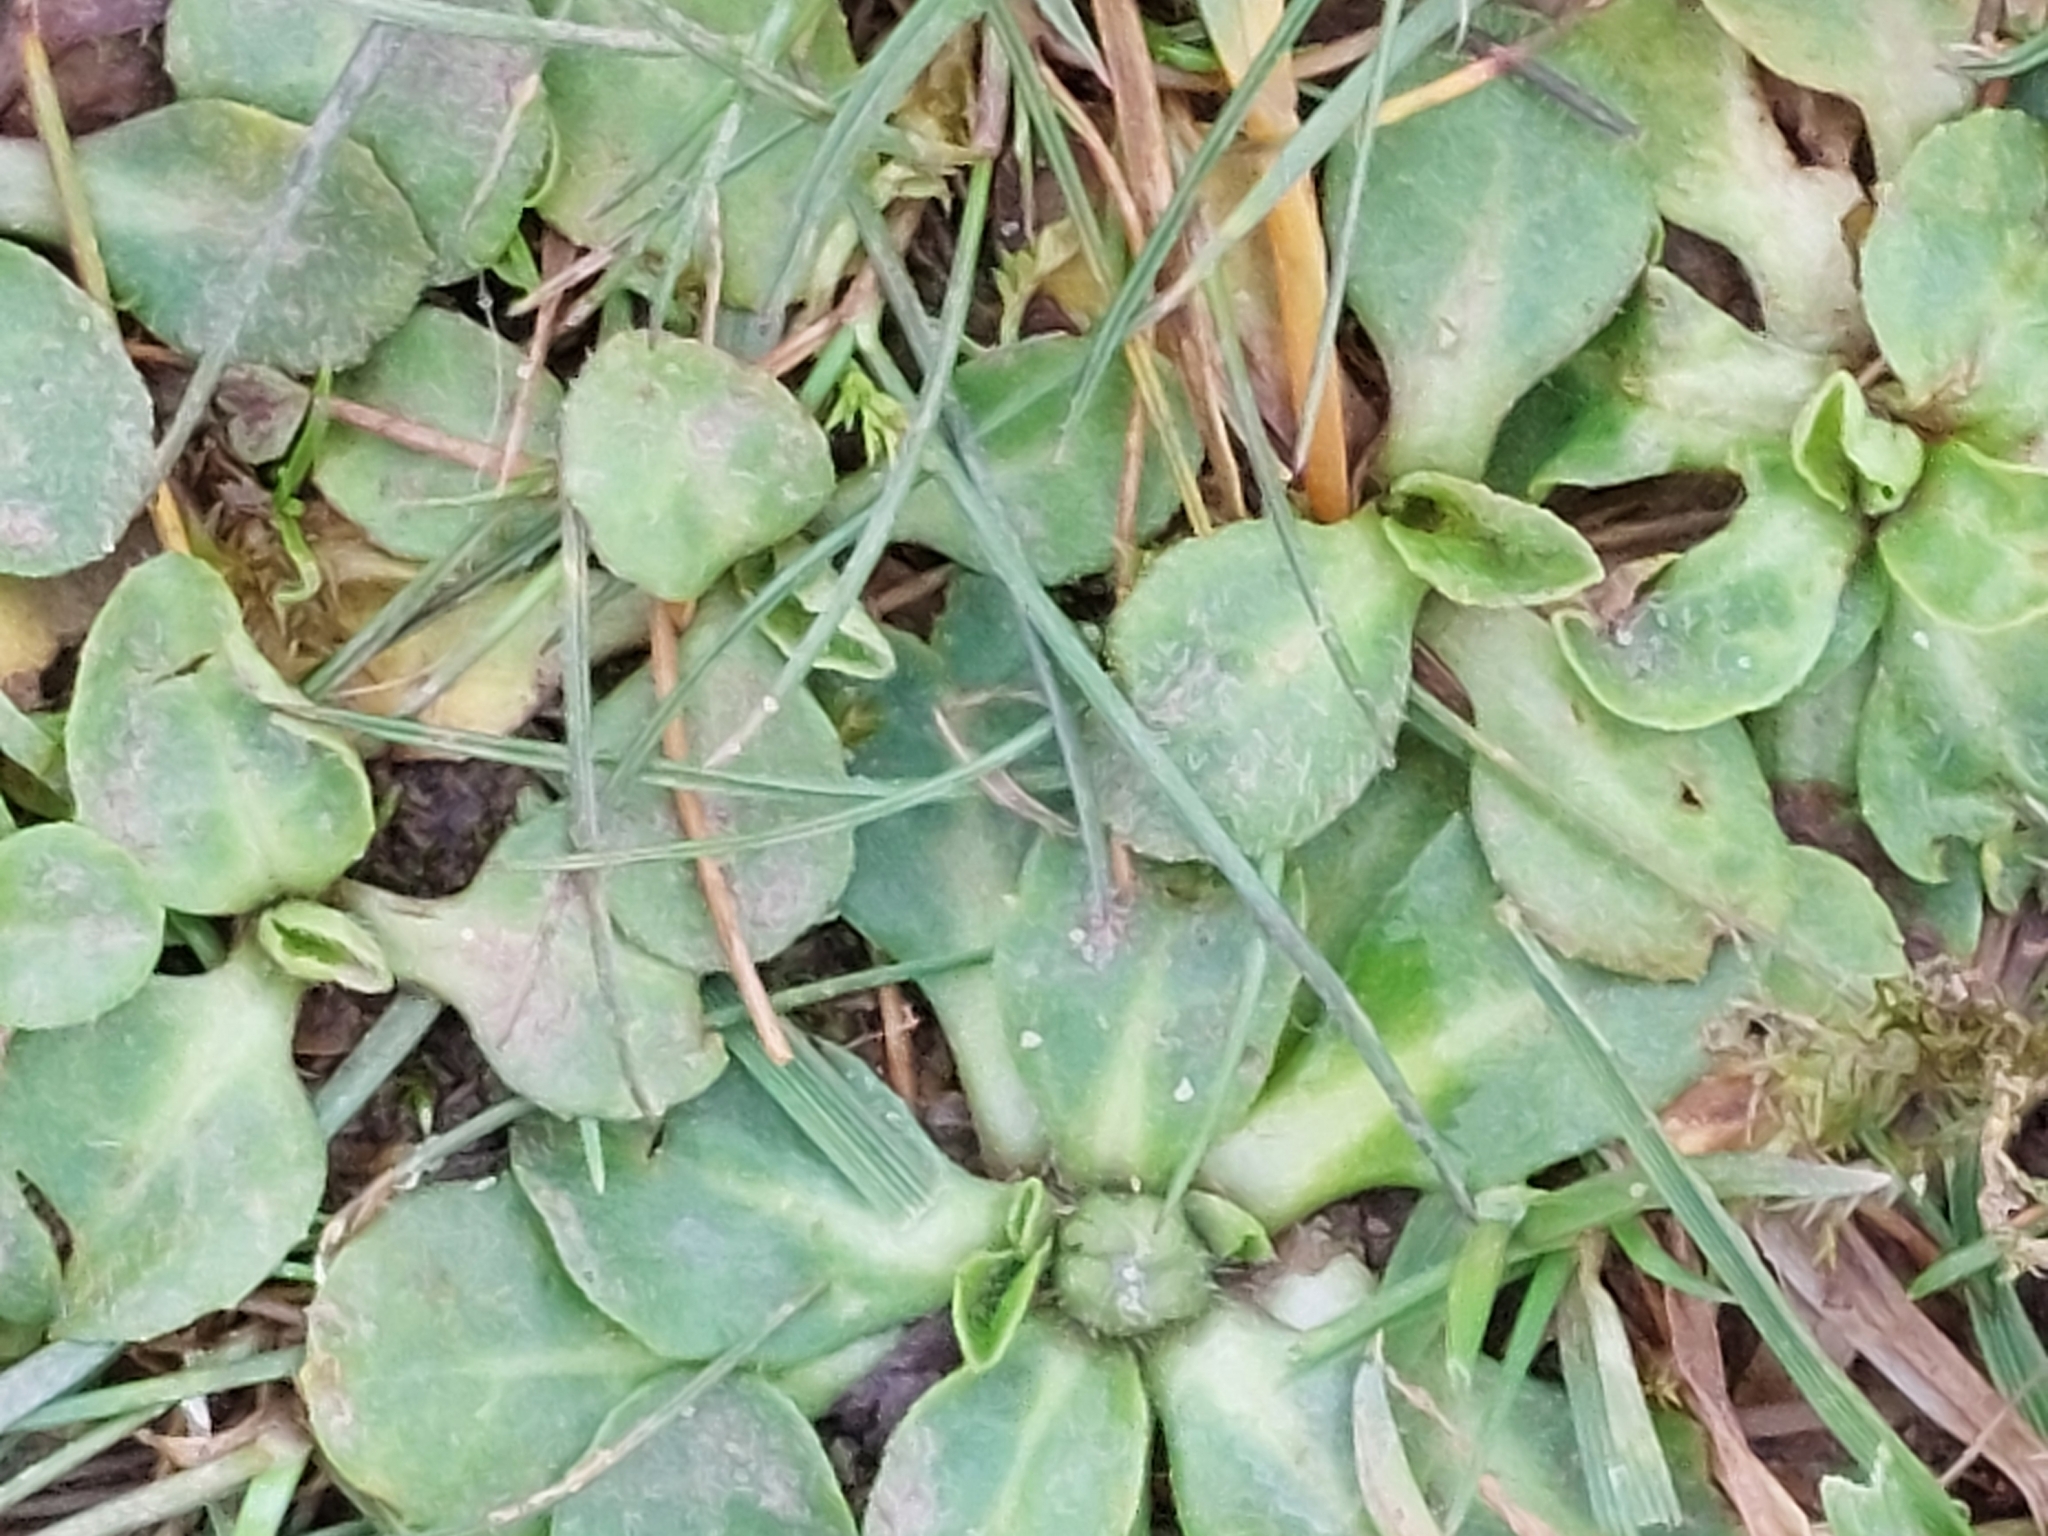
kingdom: Plantae
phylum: Tracheophyta
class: Magnoliopsida
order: Asterales
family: Asteraceae
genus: Bellis
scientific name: Bellis perennis
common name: Lawndaisy
